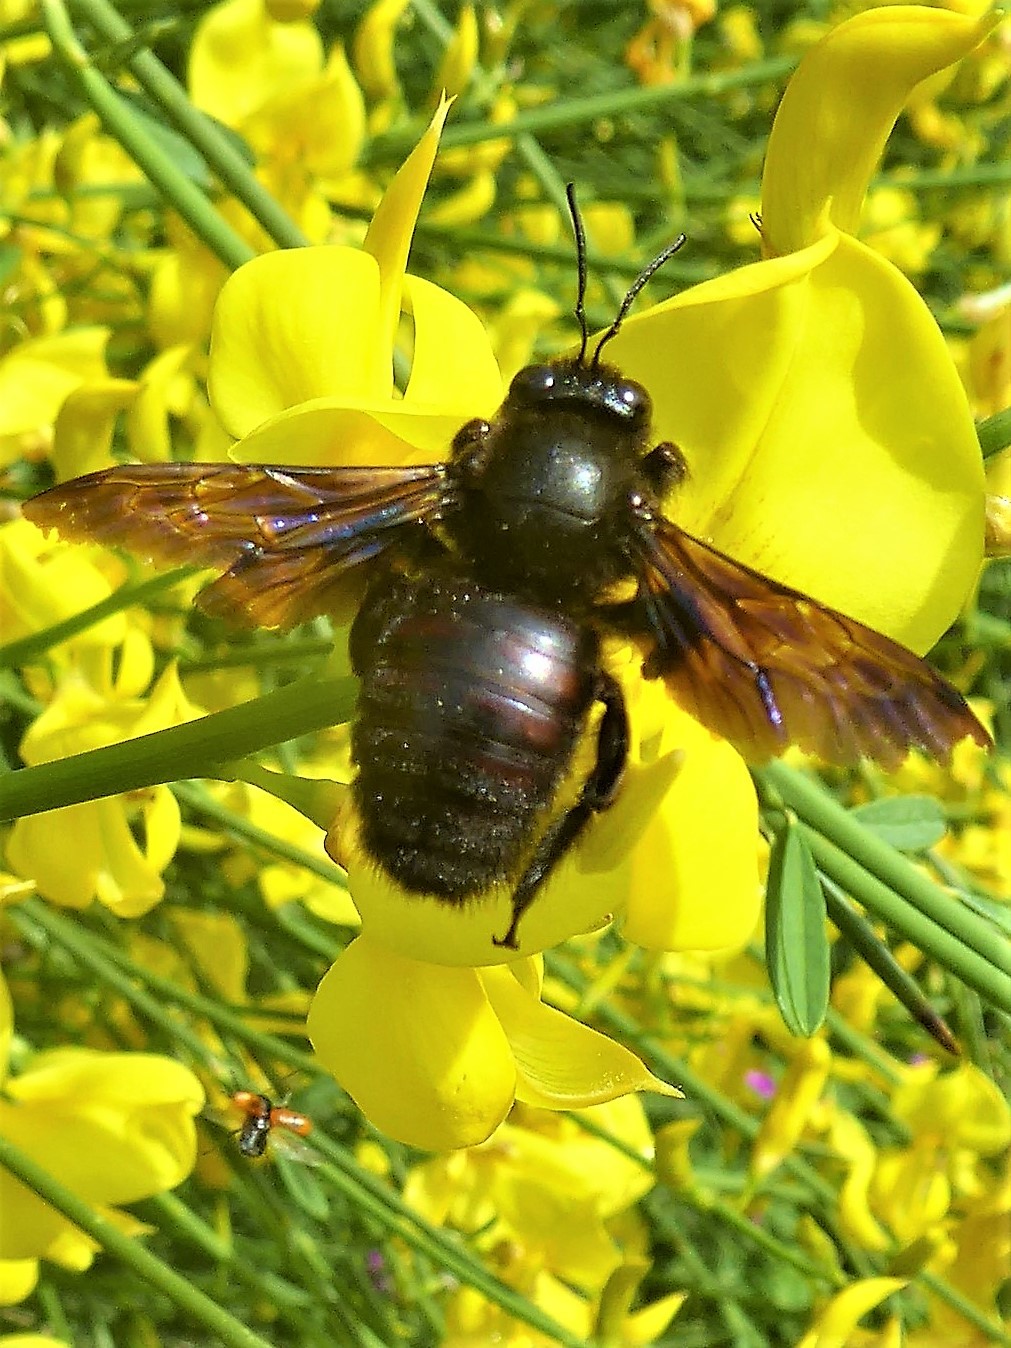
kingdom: Animalia
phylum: Arthropoda
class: Insecta
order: Hymenoptera
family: Apidae
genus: Xylocopa
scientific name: Xylocopa valga
